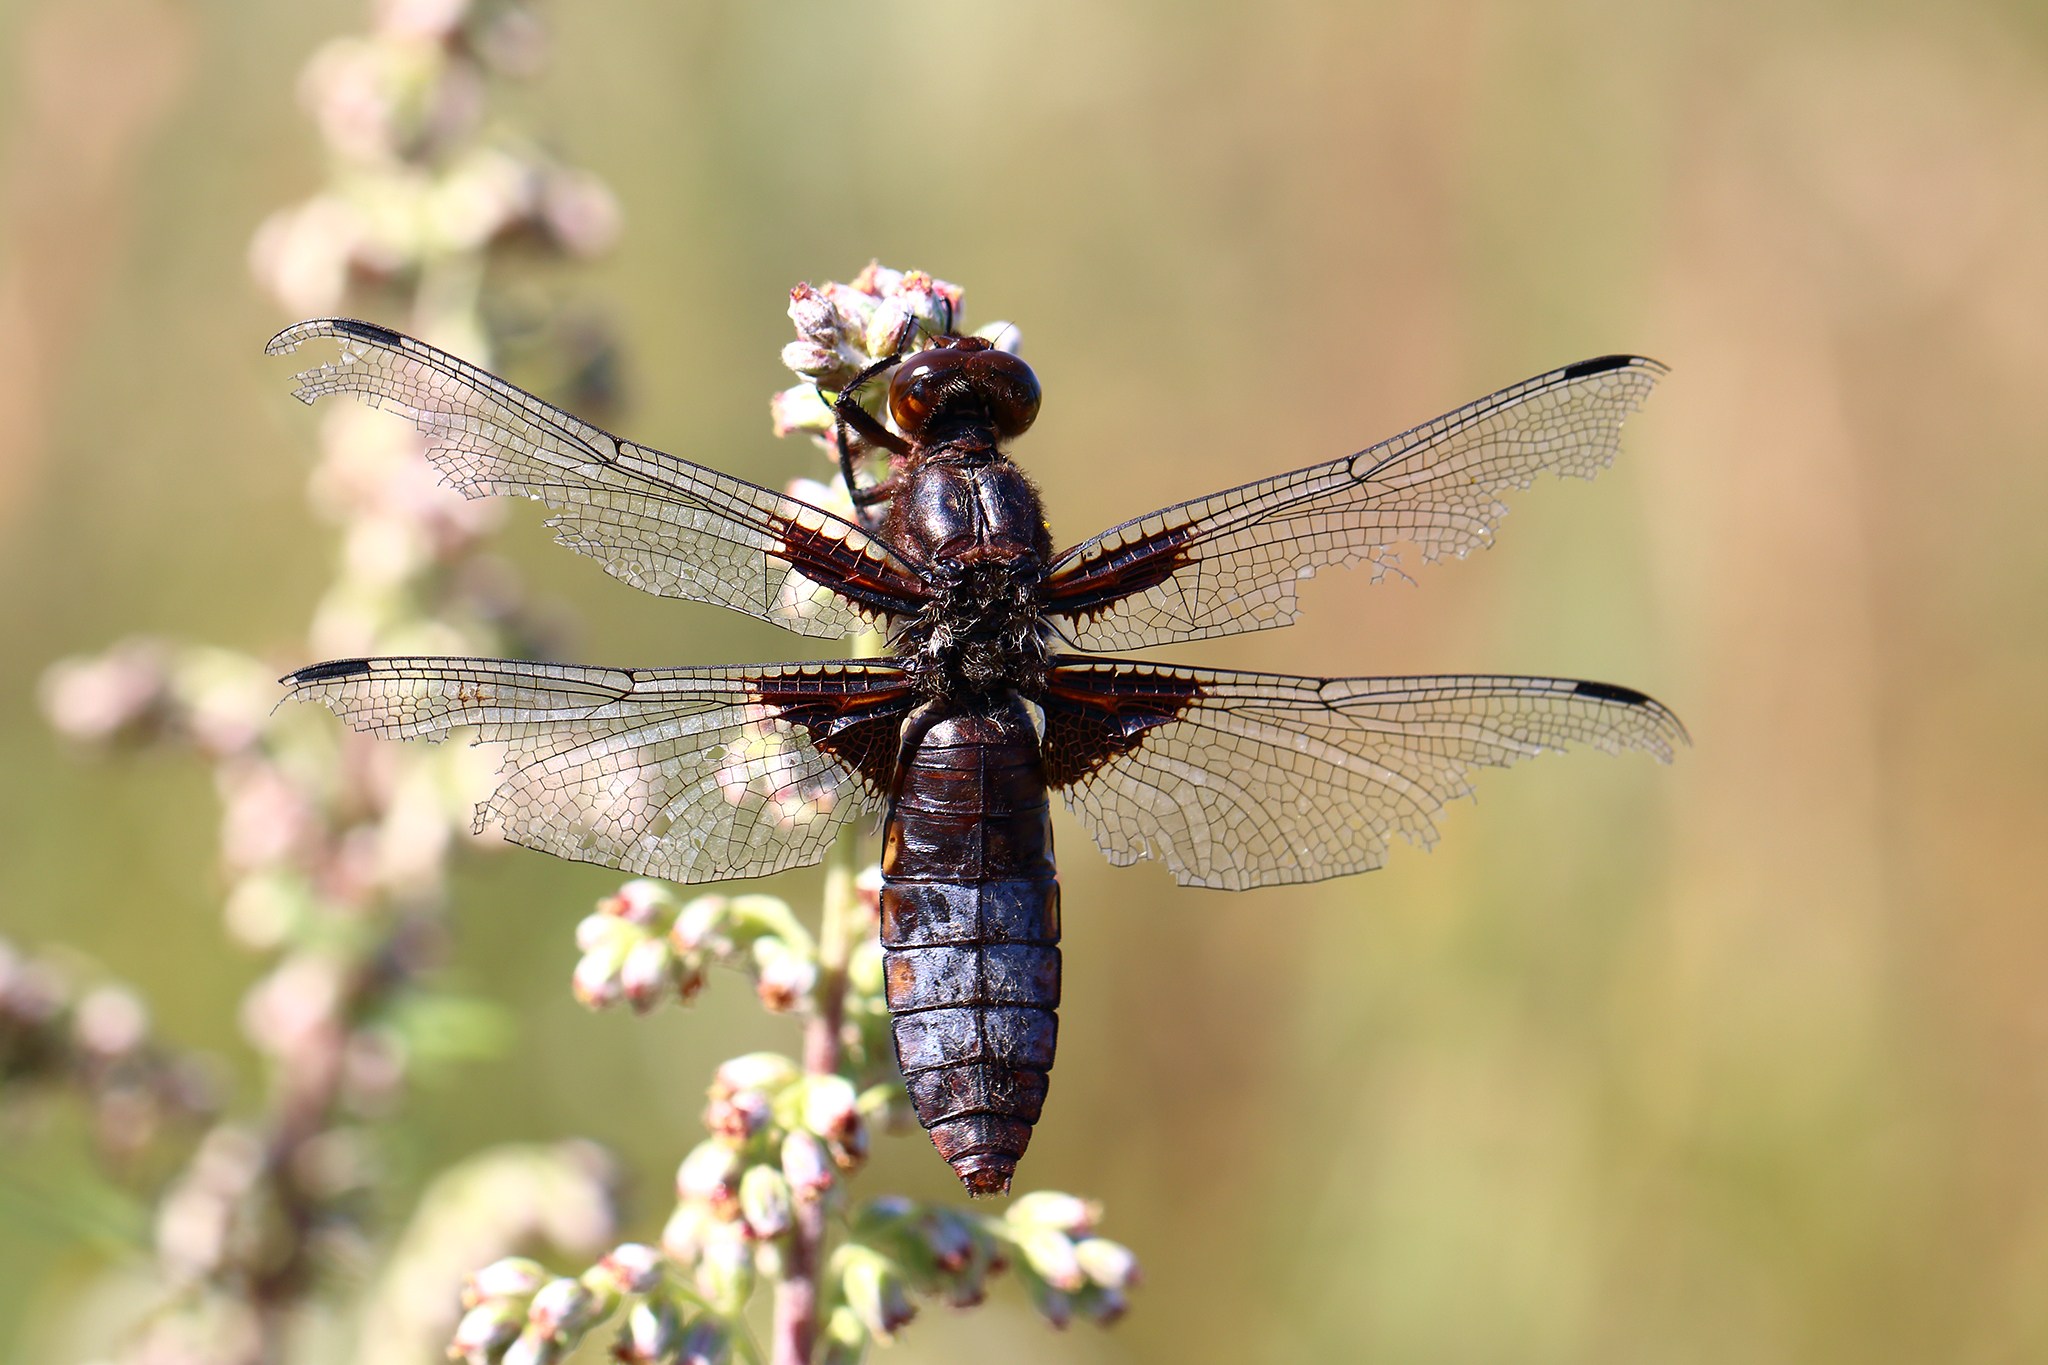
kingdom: Animalia
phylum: Arthropoda
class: Insecta
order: Odonata
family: Libellulidae
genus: Libellula
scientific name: Libellula depressa
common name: Broad-bodied chaser
